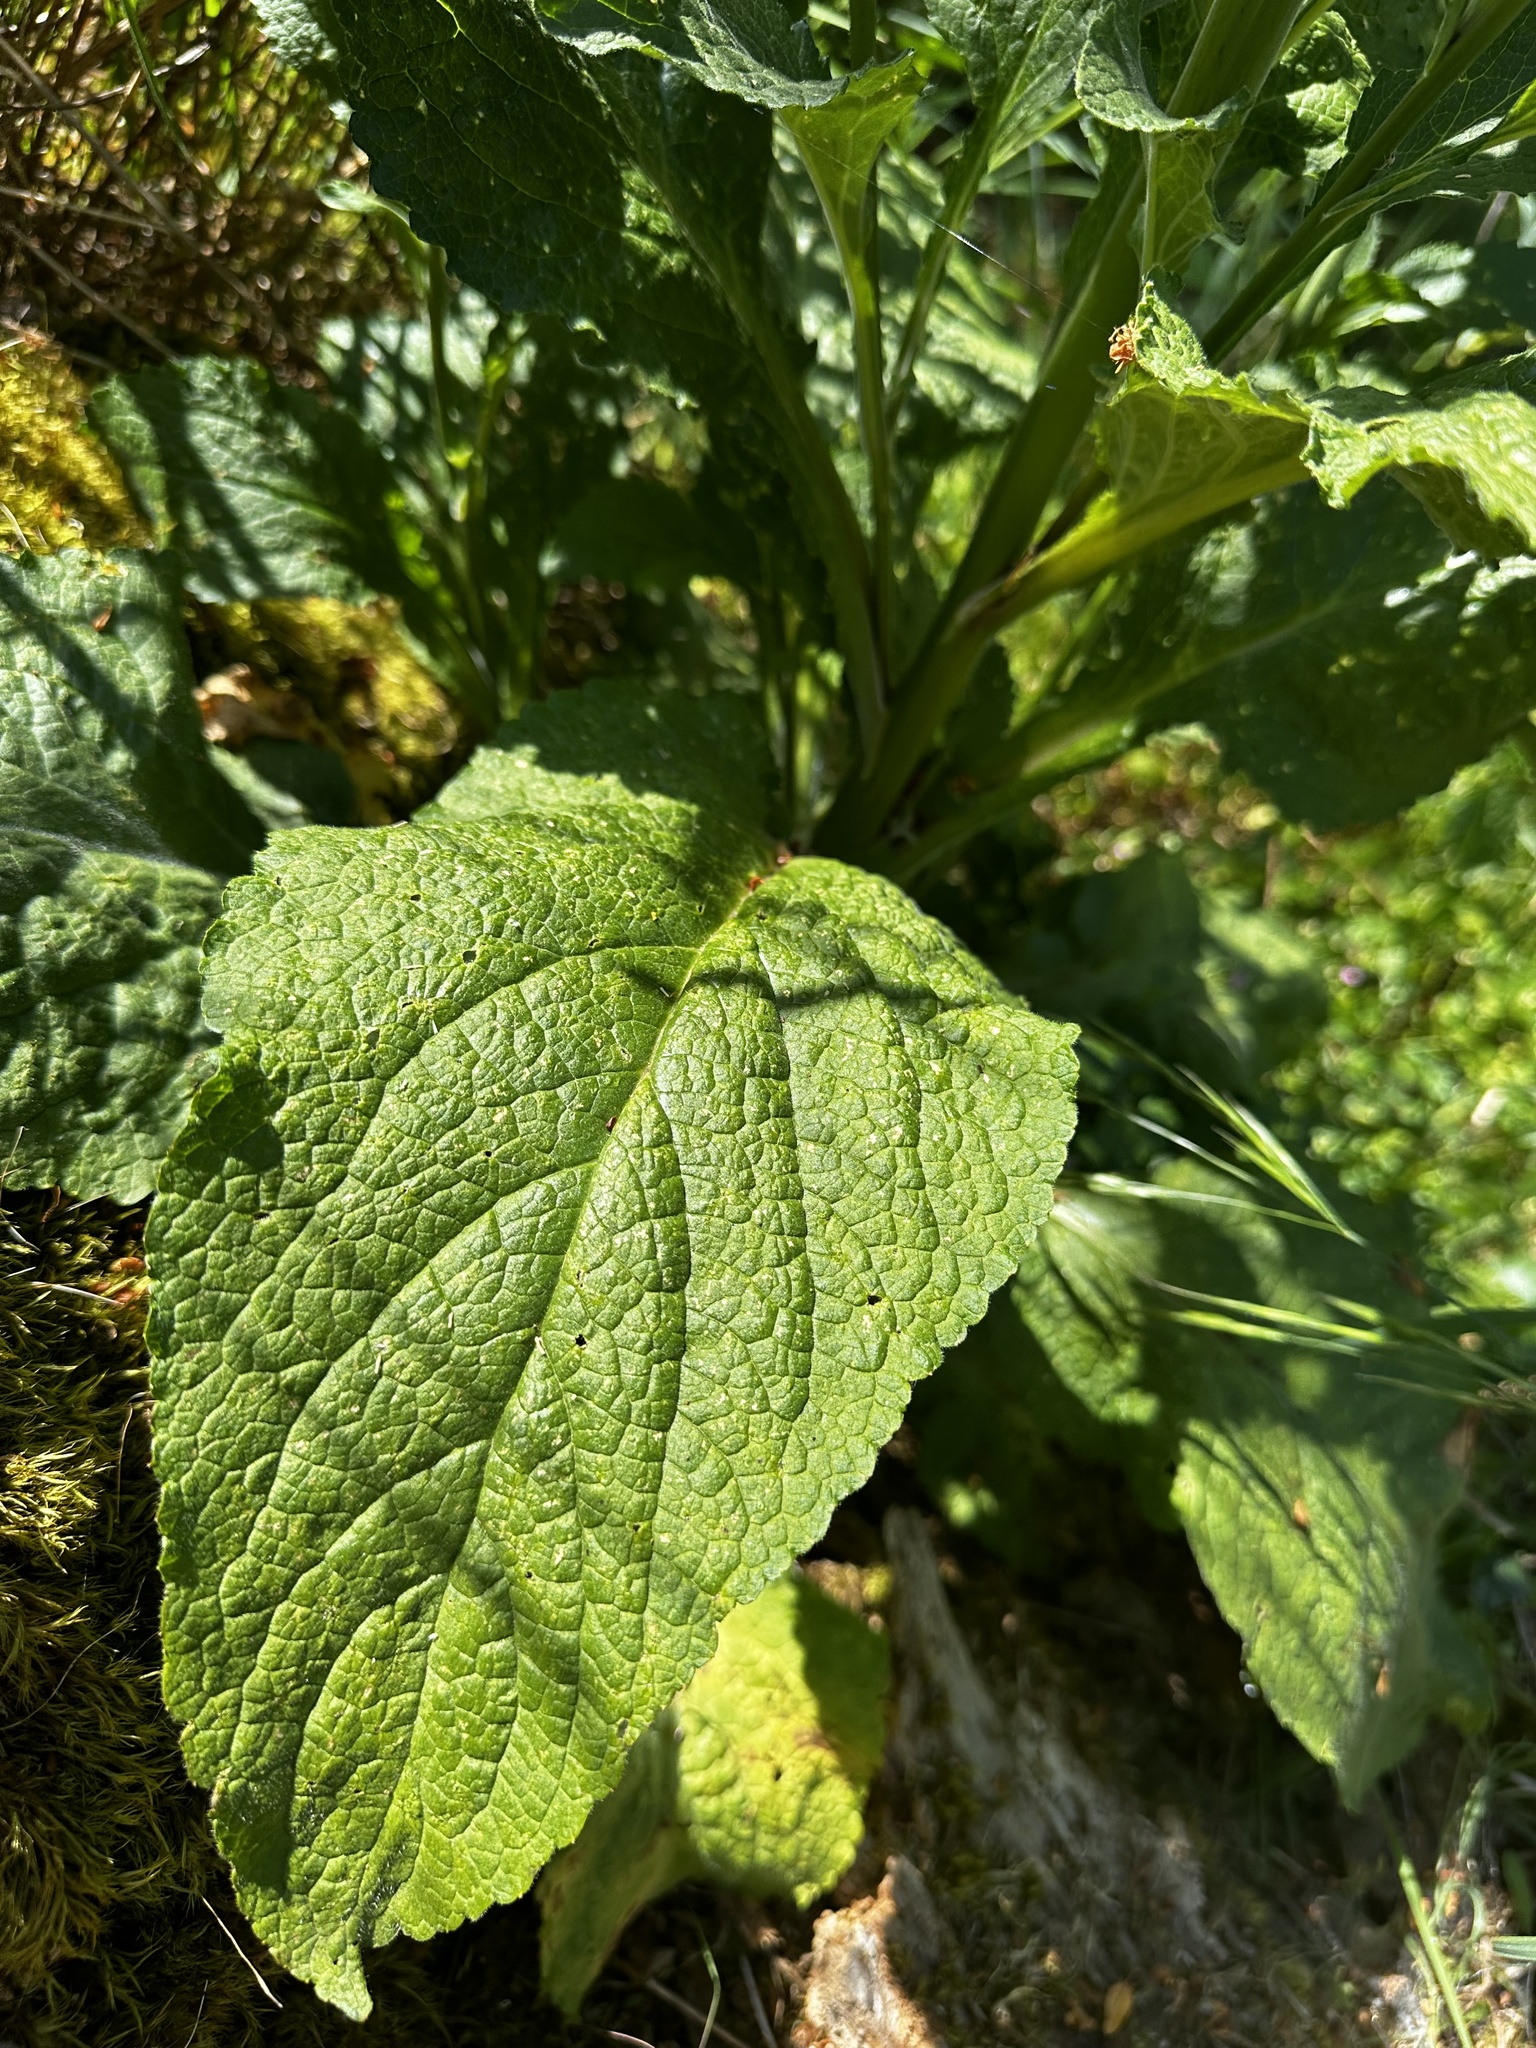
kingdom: Plantae
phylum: Tracheophyta
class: Magnoliopsida
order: Lamiales
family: Plantaginaceae
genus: Digitalis
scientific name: Digitalis purpurea
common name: Foxglove
